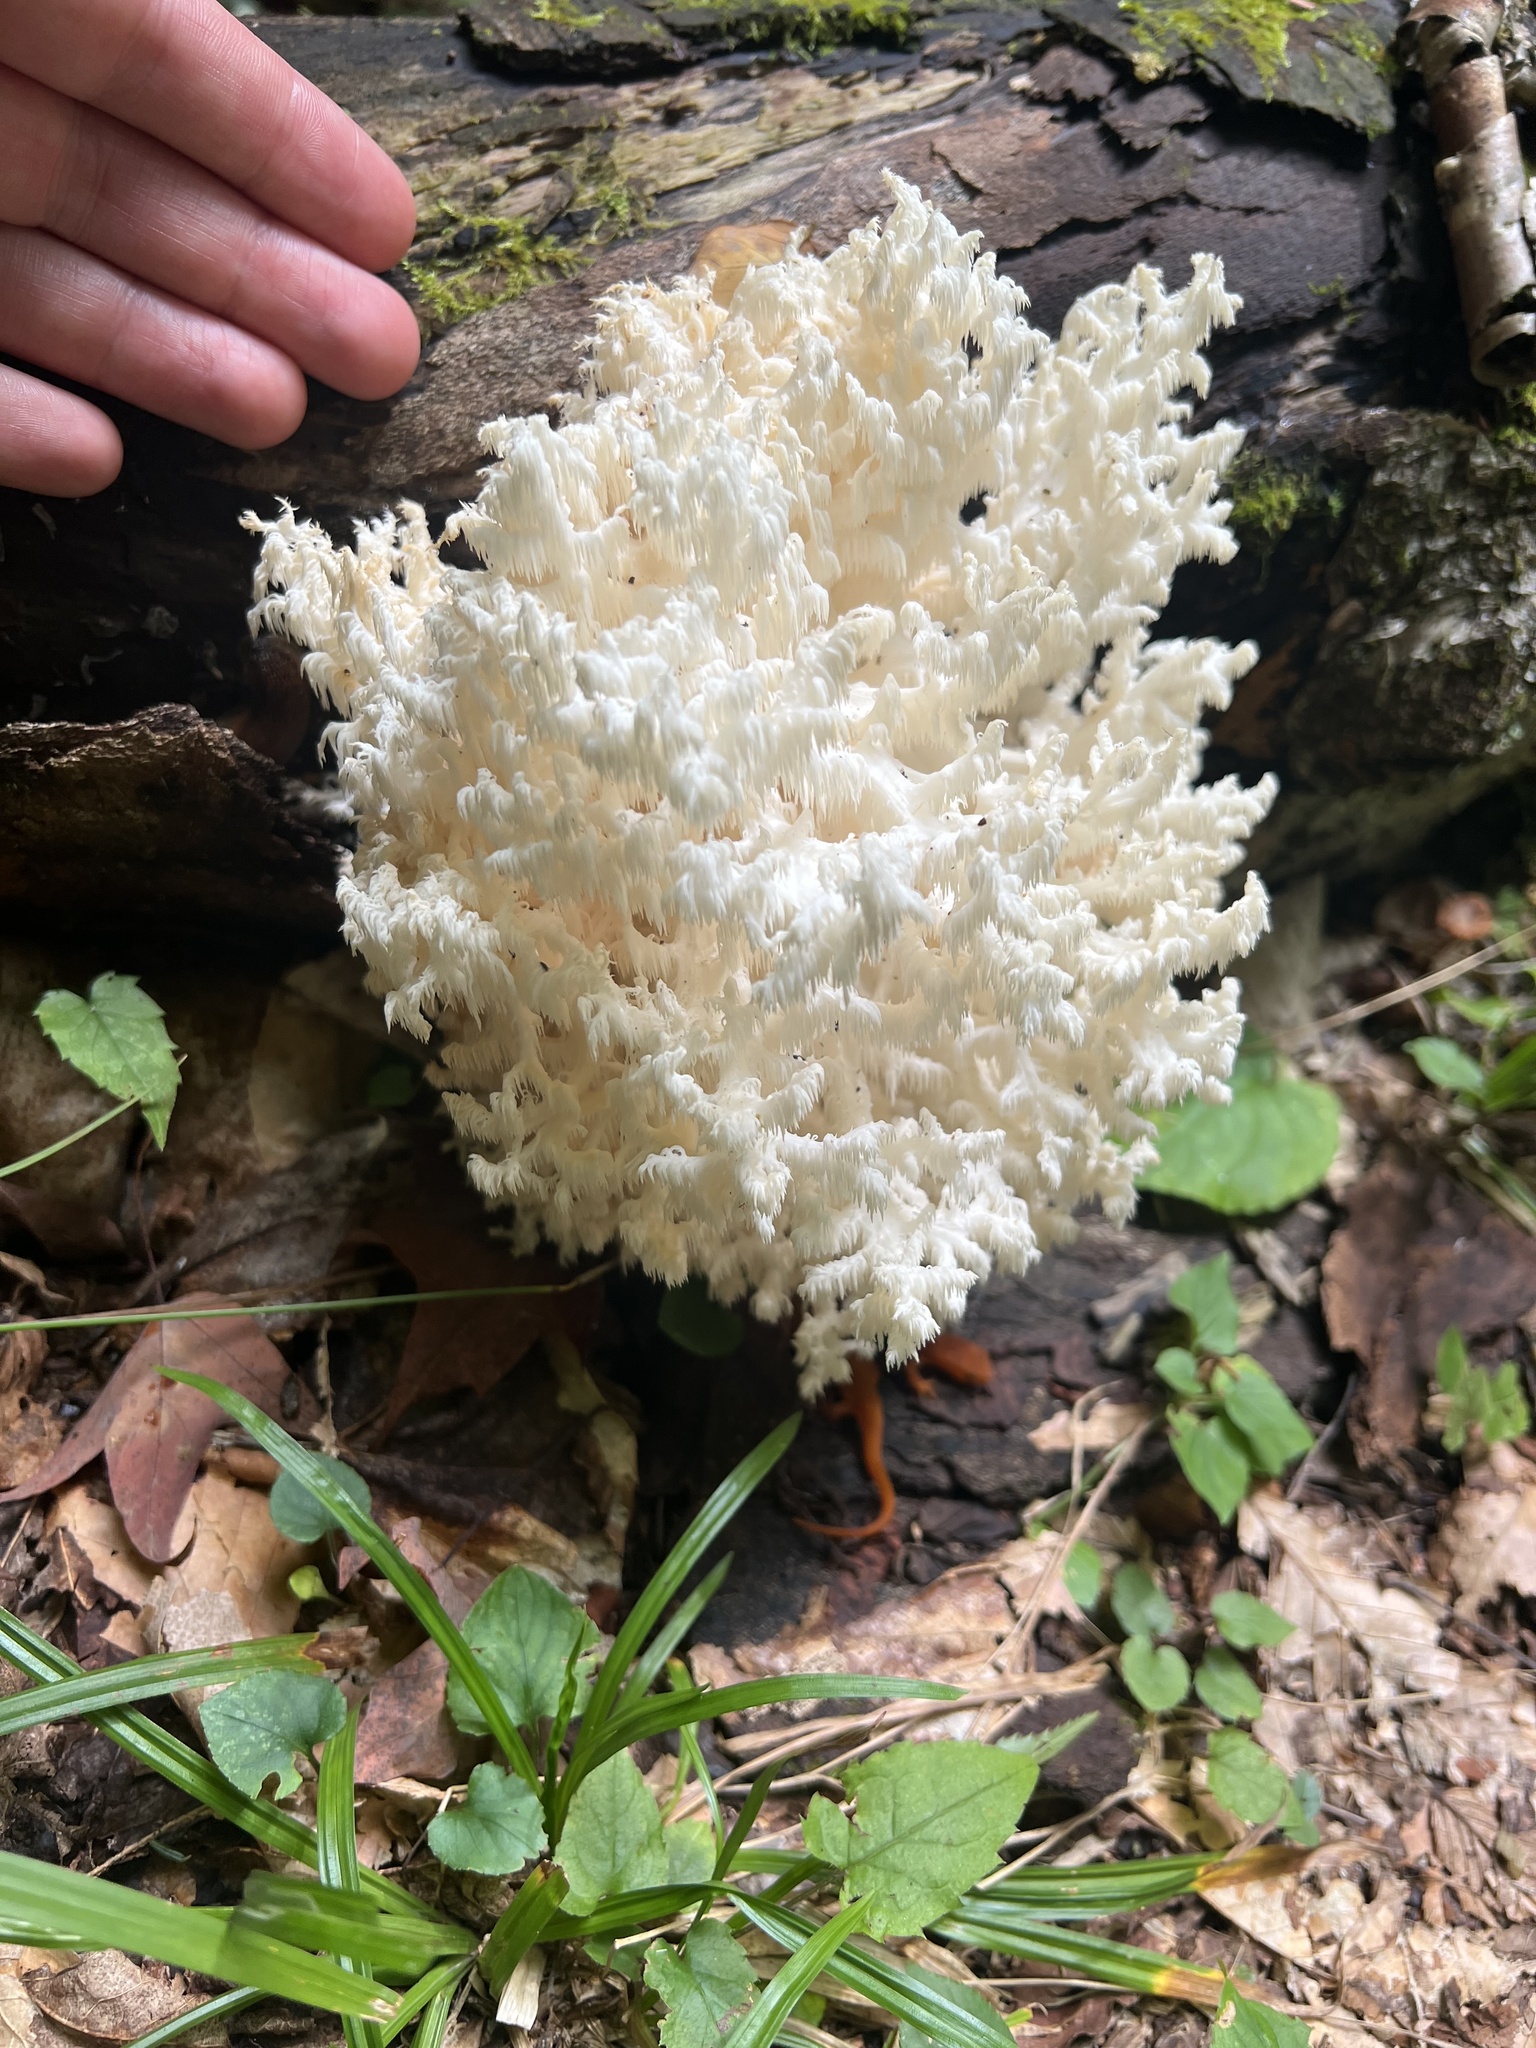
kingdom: Fungi
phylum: Basidiomycota
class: Agaricomycetes
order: Russulales
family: Hericiaceae
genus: Hericium
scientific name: Hericium coralloides
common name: Coral tooth
